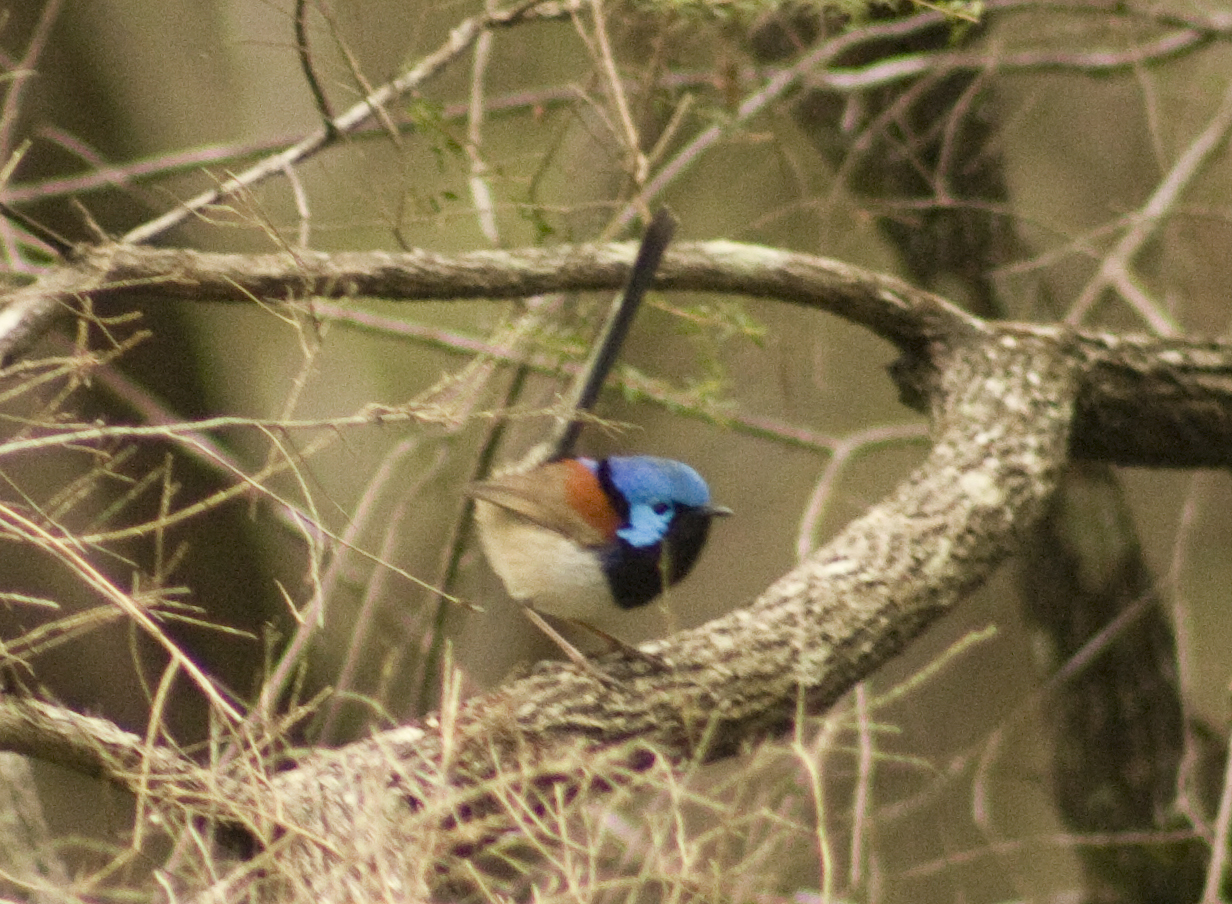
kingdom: Animalia
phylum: Chordata
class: Aves
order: Passeriformes
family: Maluridae
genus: Malurus
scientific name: Malurus lamberti
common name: Variegated fairywren
